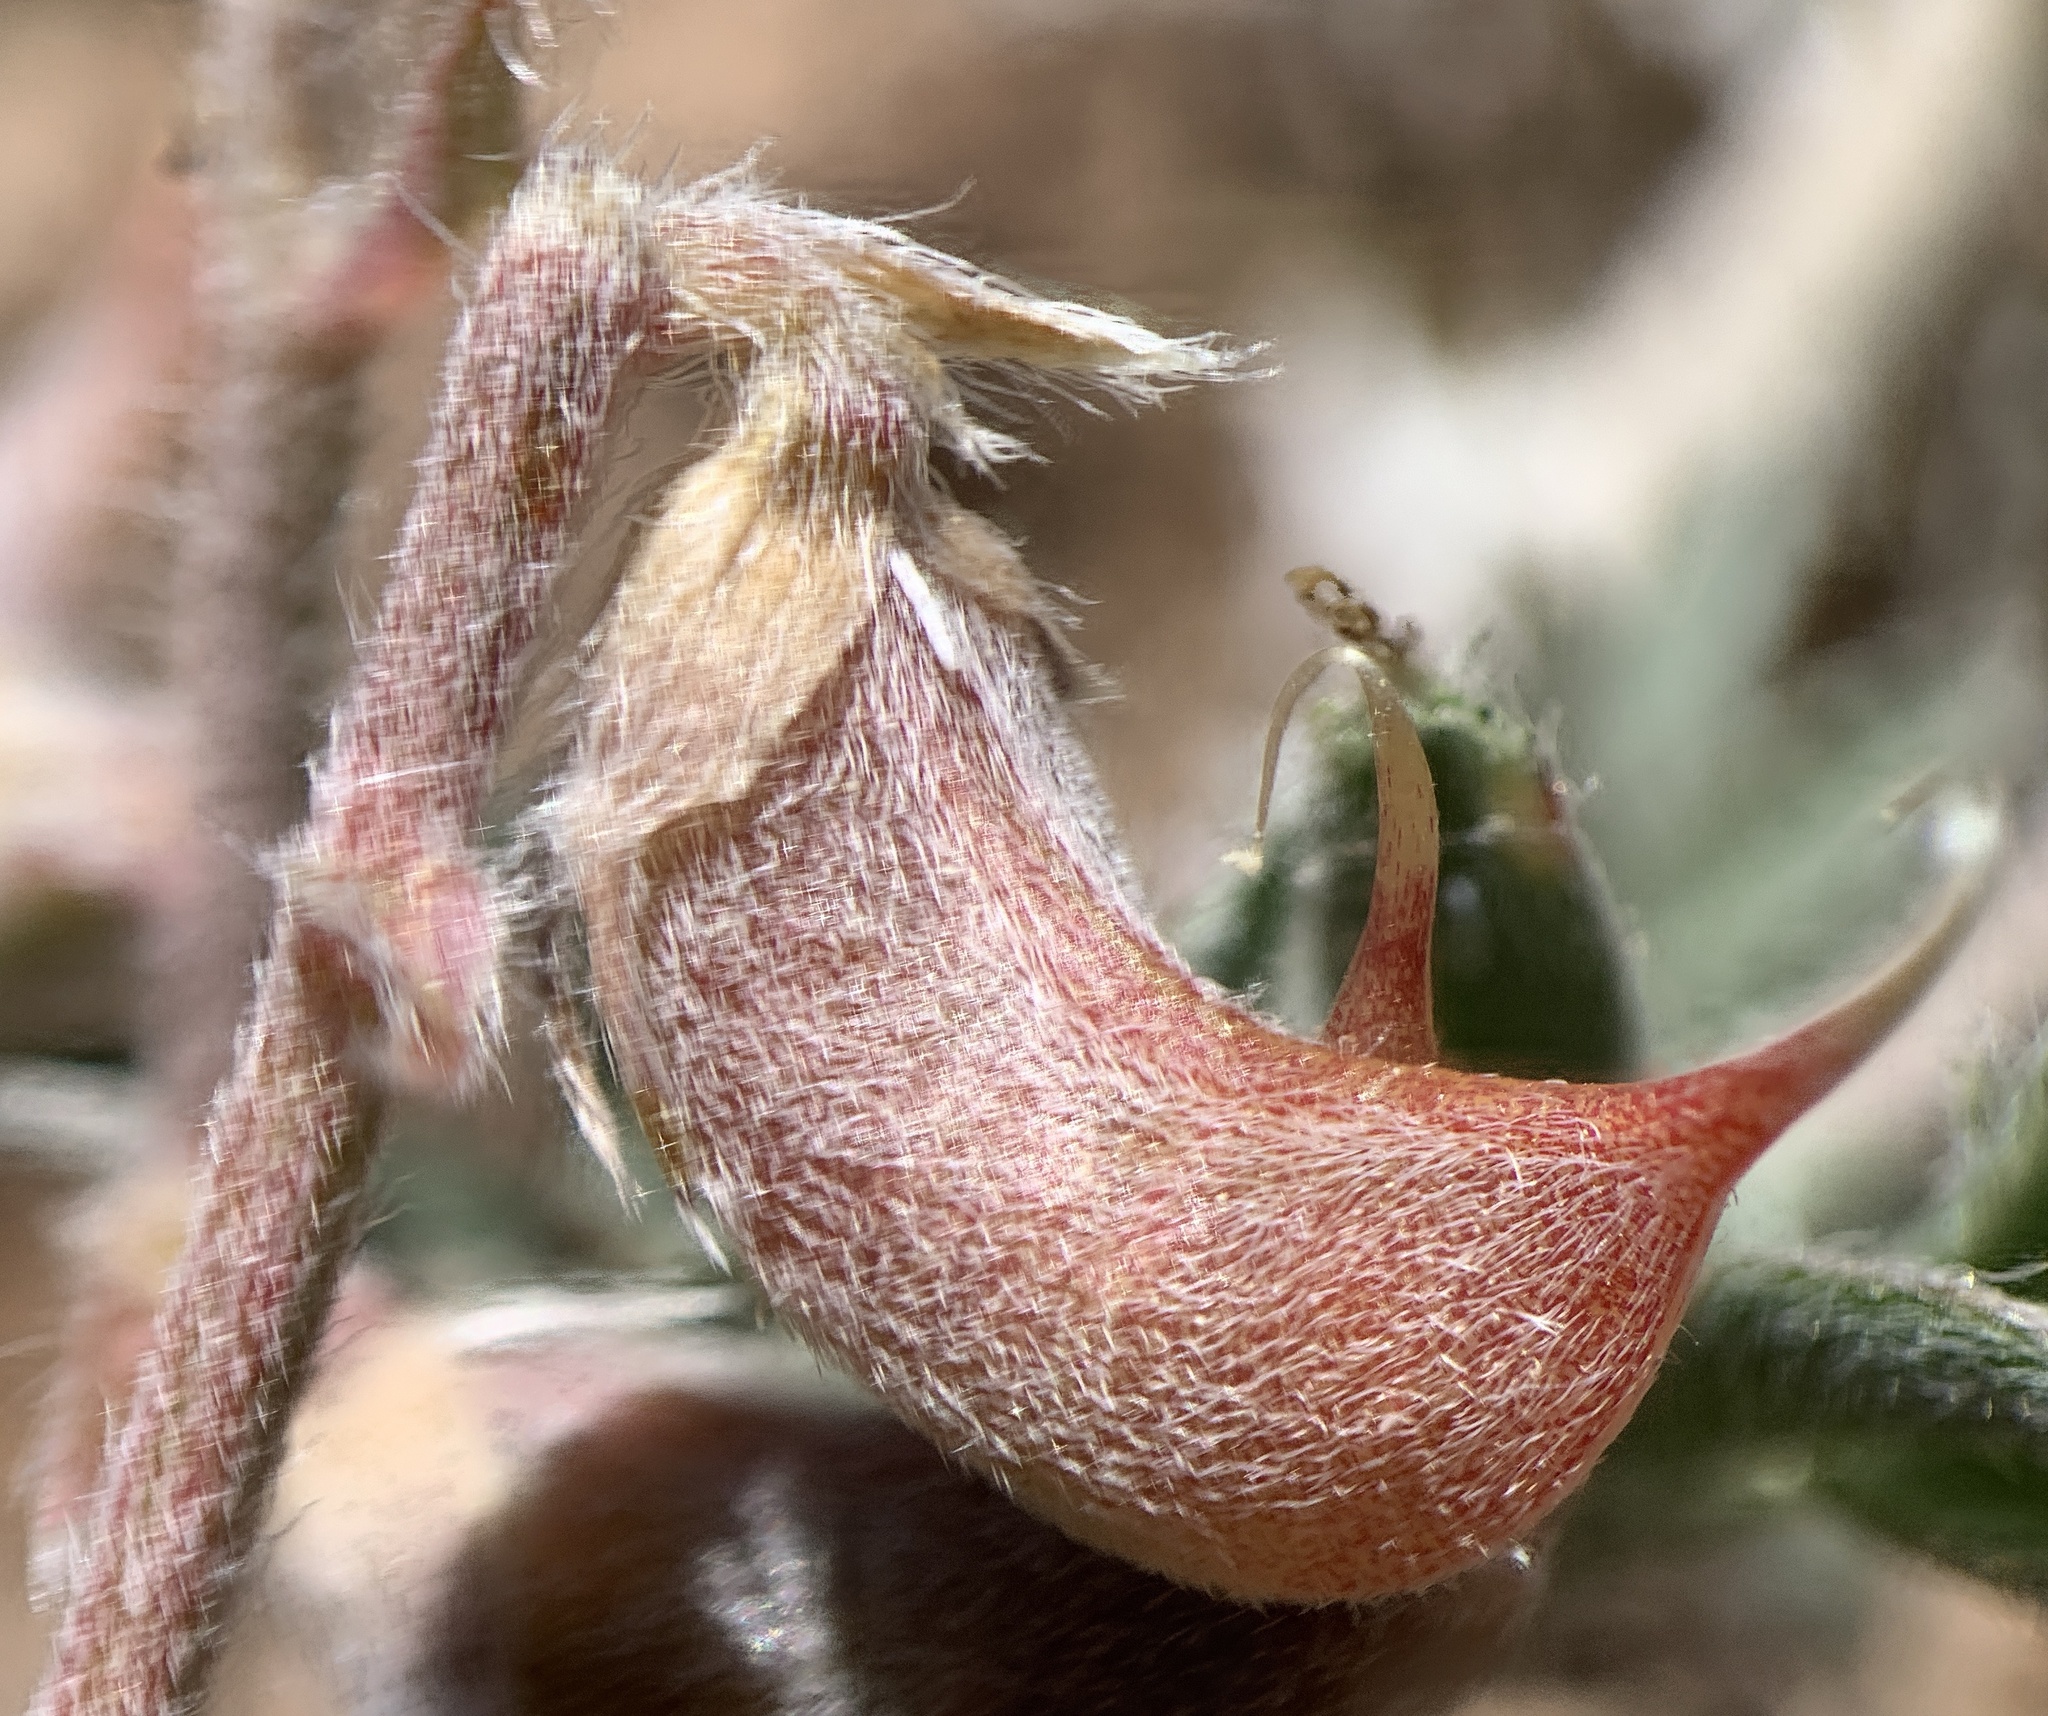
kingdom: Plantae
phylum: Tracheophyta
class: Magnoliopsida
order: Fabales
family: Fabaceae
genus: Astragalus
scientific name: Astragalus humistratus
